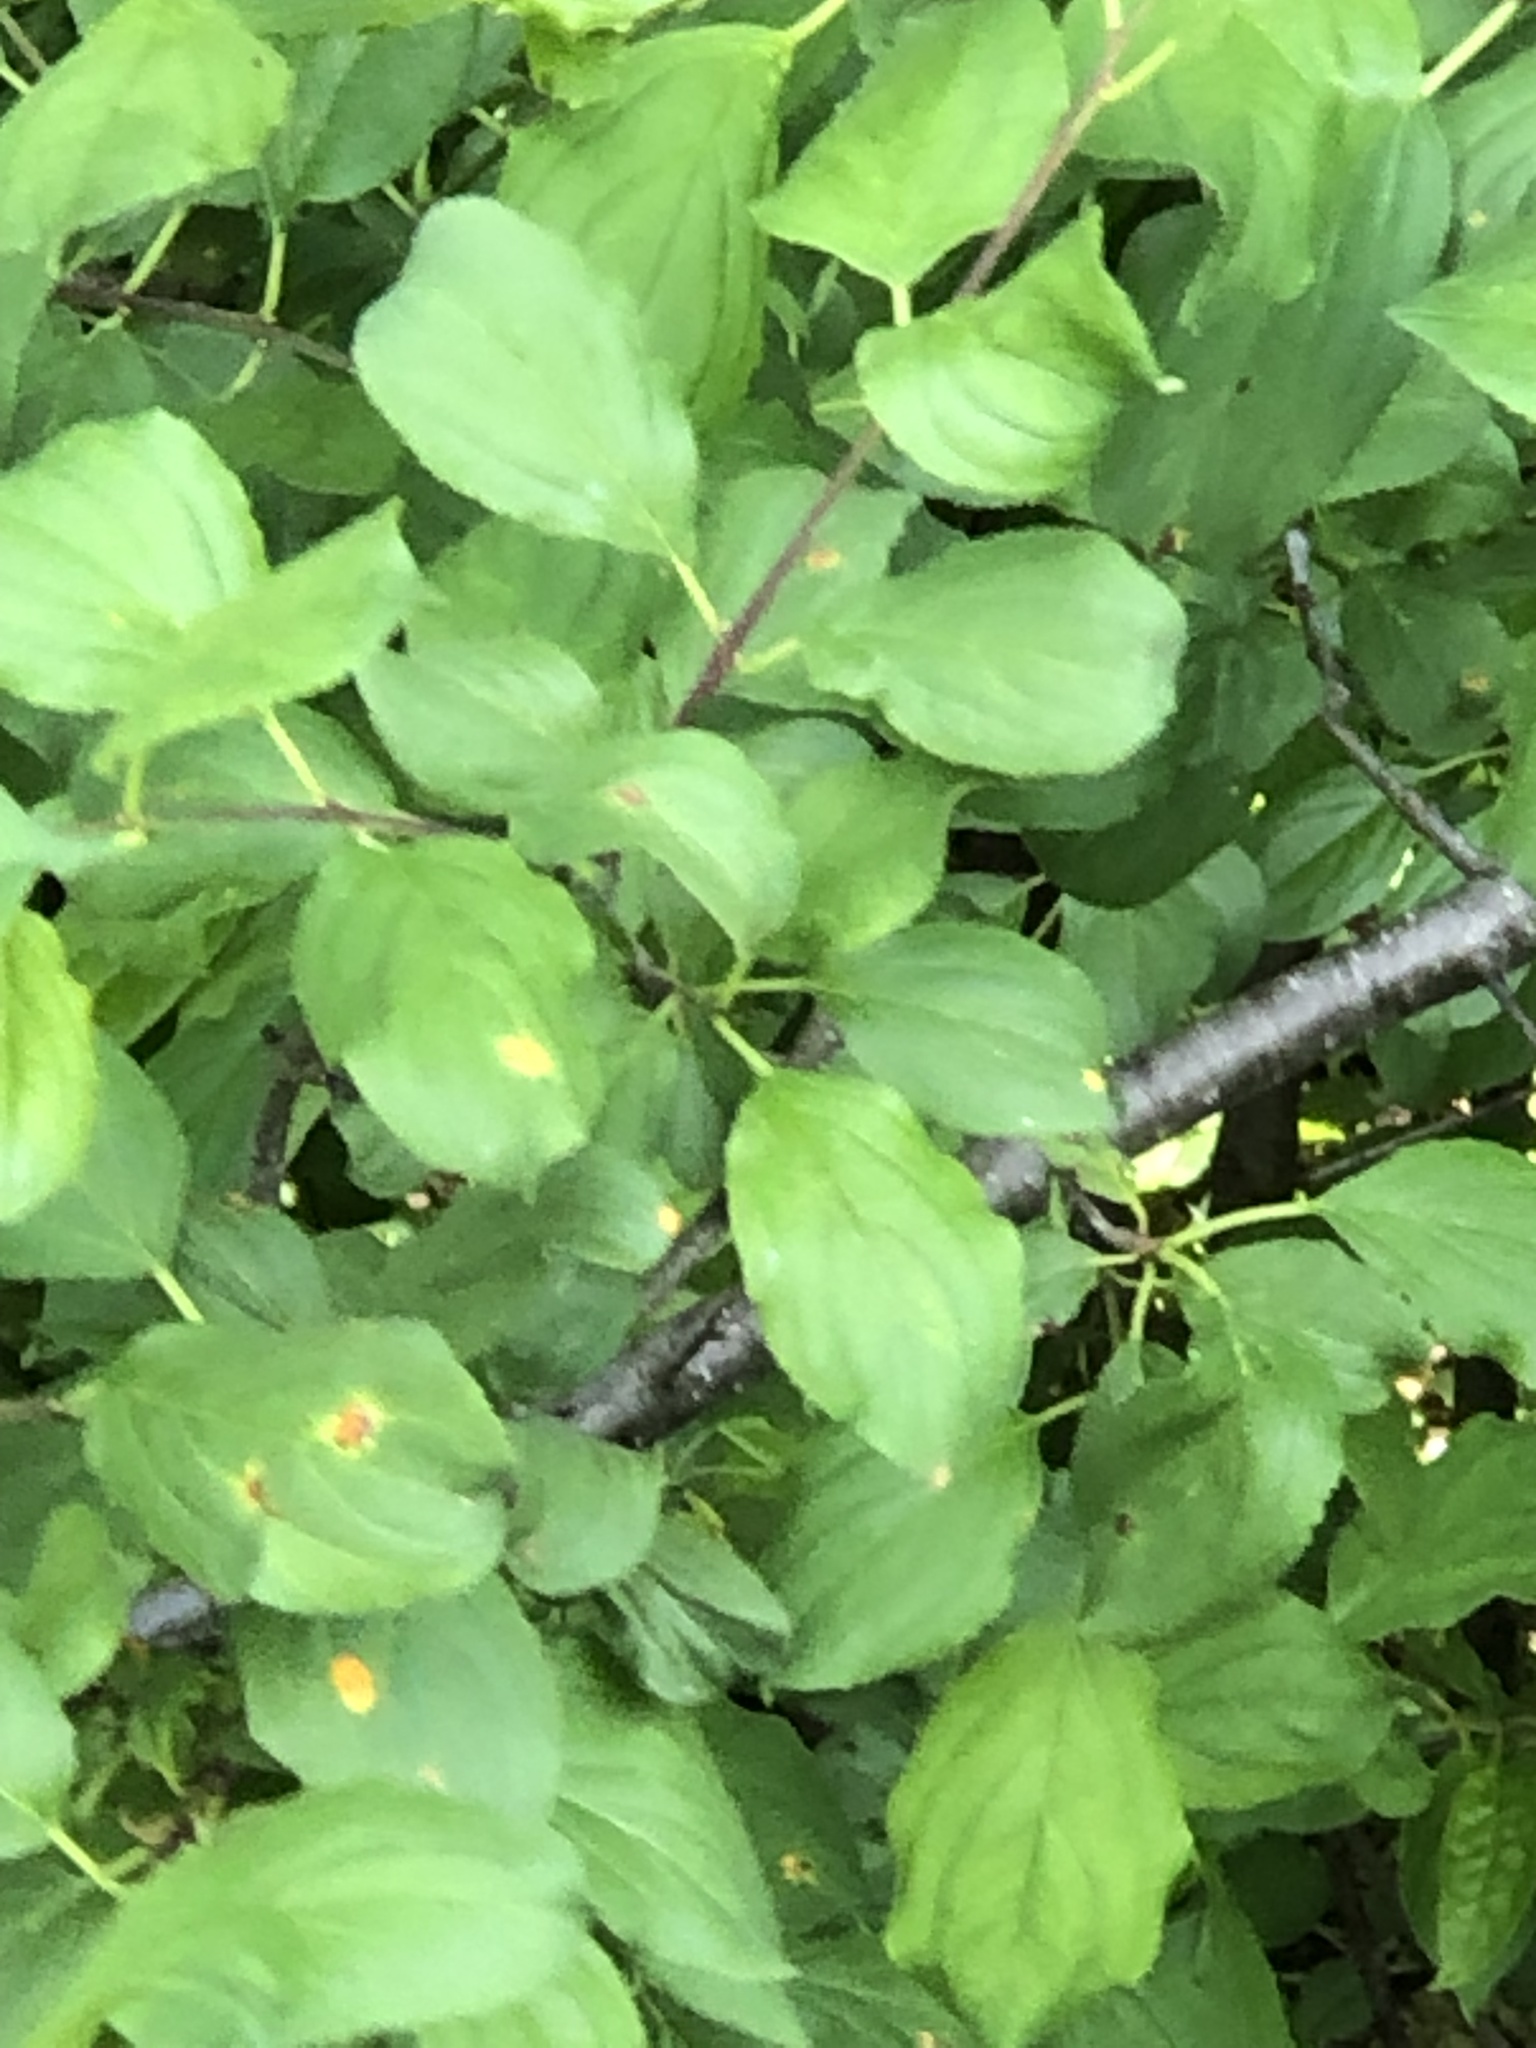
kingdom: Fungi
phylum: Basidiomycota
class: Pucciniomycetes
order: Pucciniales
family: Pucciniaceae
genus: Puccinia
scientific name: Puccinia coronata
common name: Crown rust
